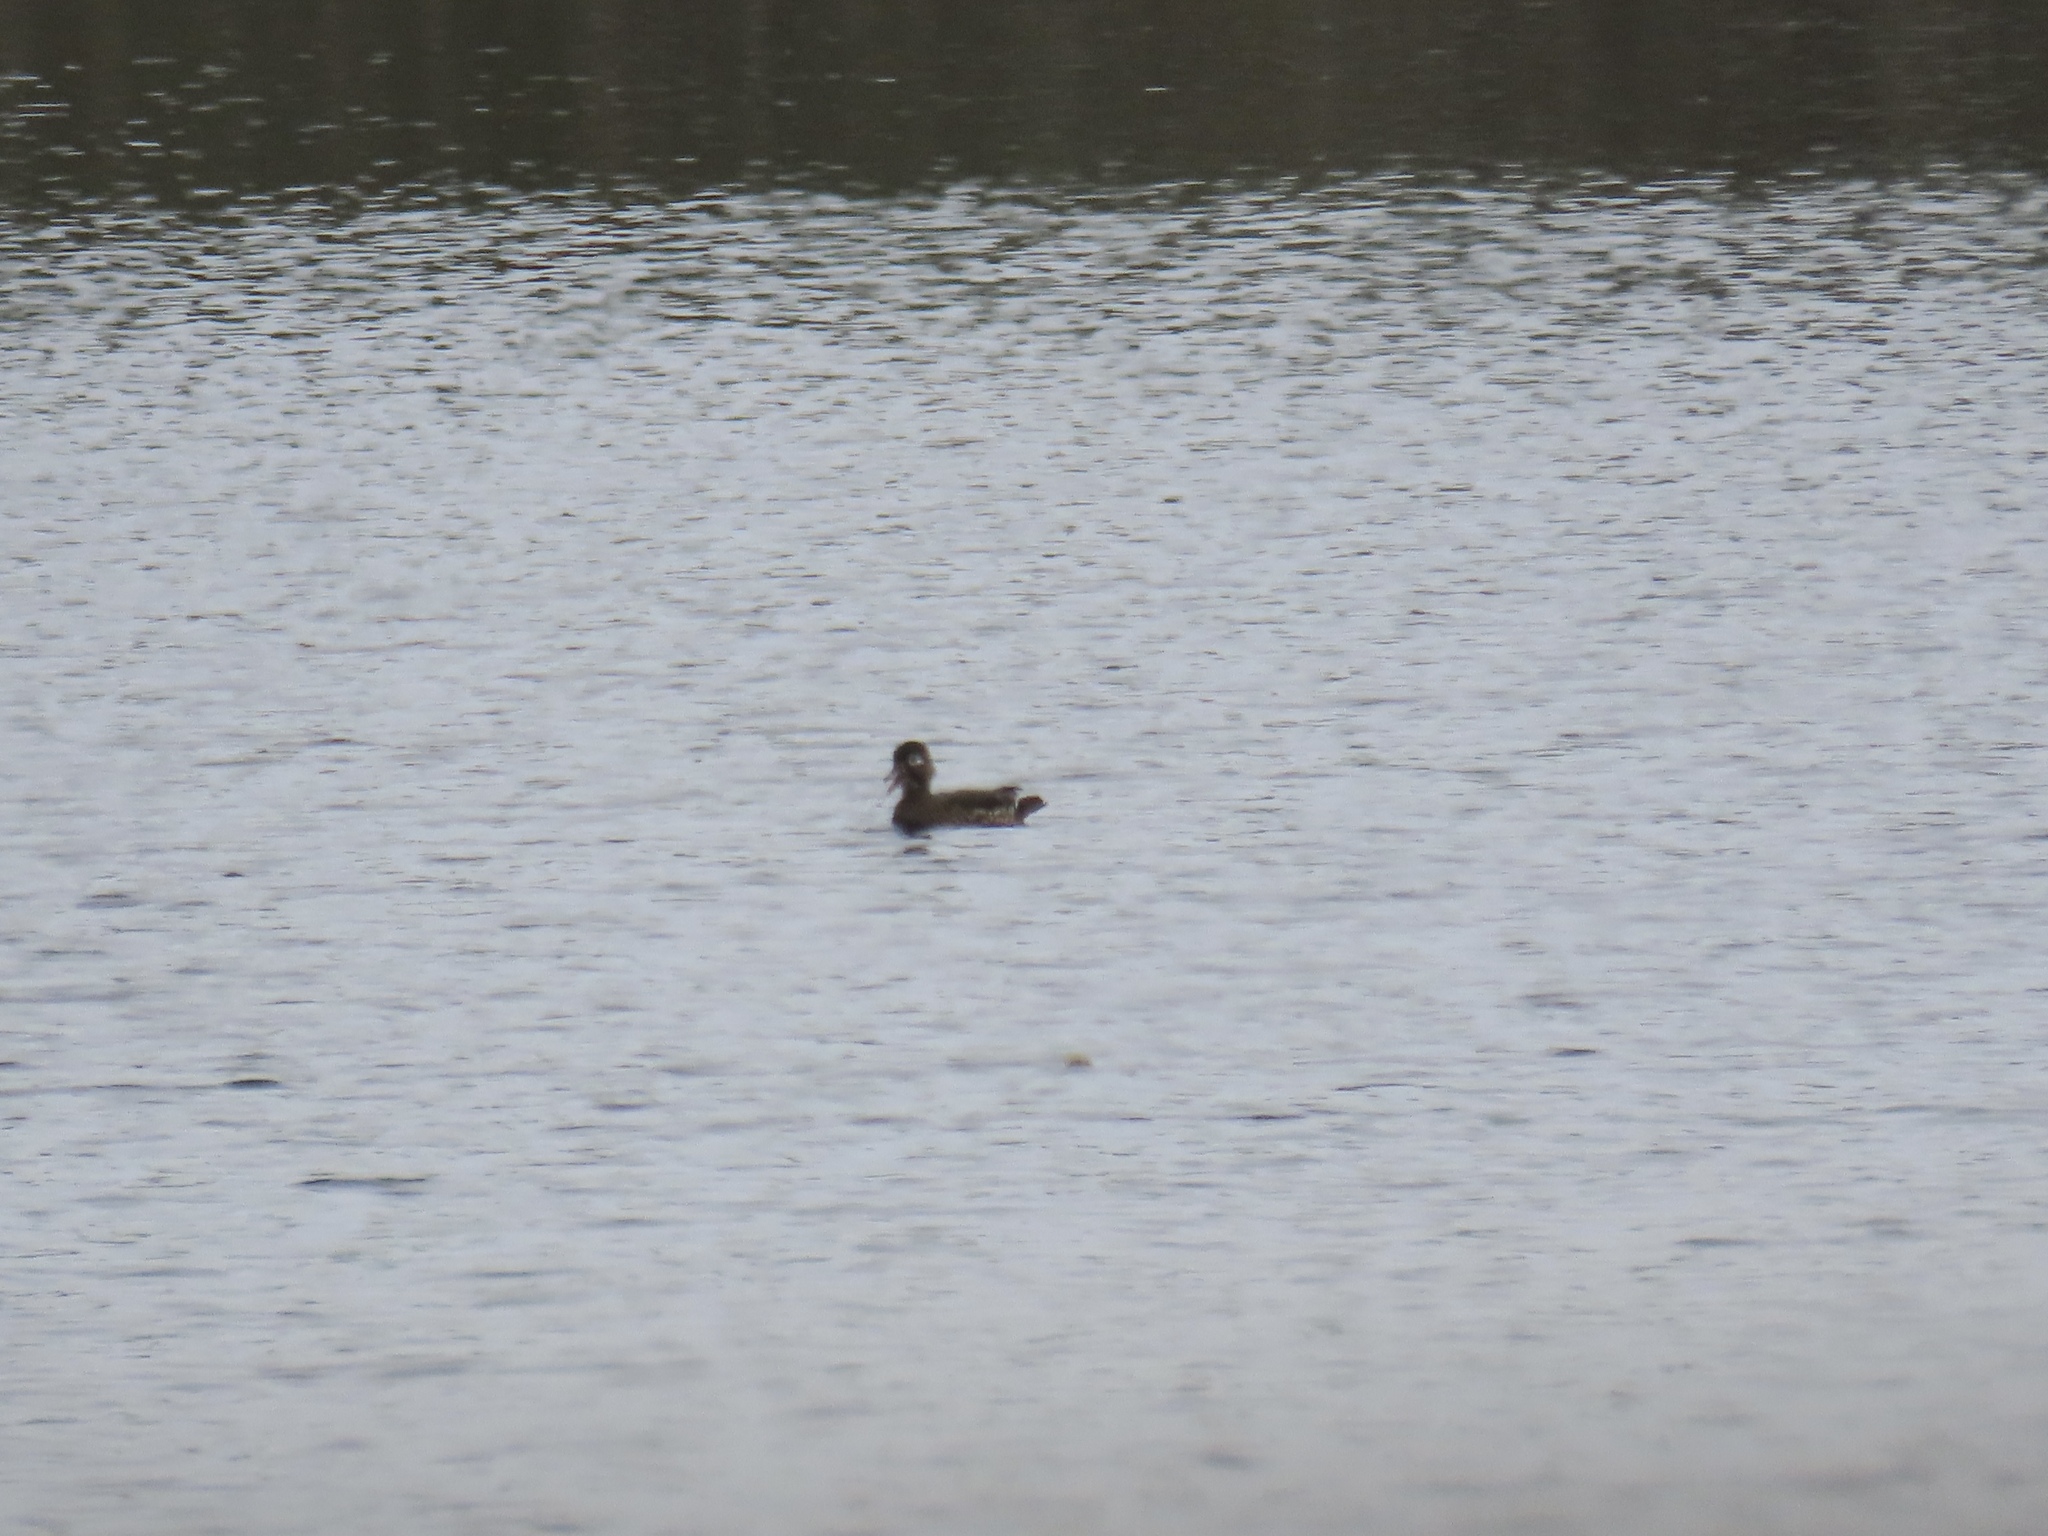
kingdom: Animalia
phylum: Chordata
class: Aves
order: Anseriformes
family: Anatidae
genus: Aix
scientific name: Aix sponsa
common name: Wood duck
